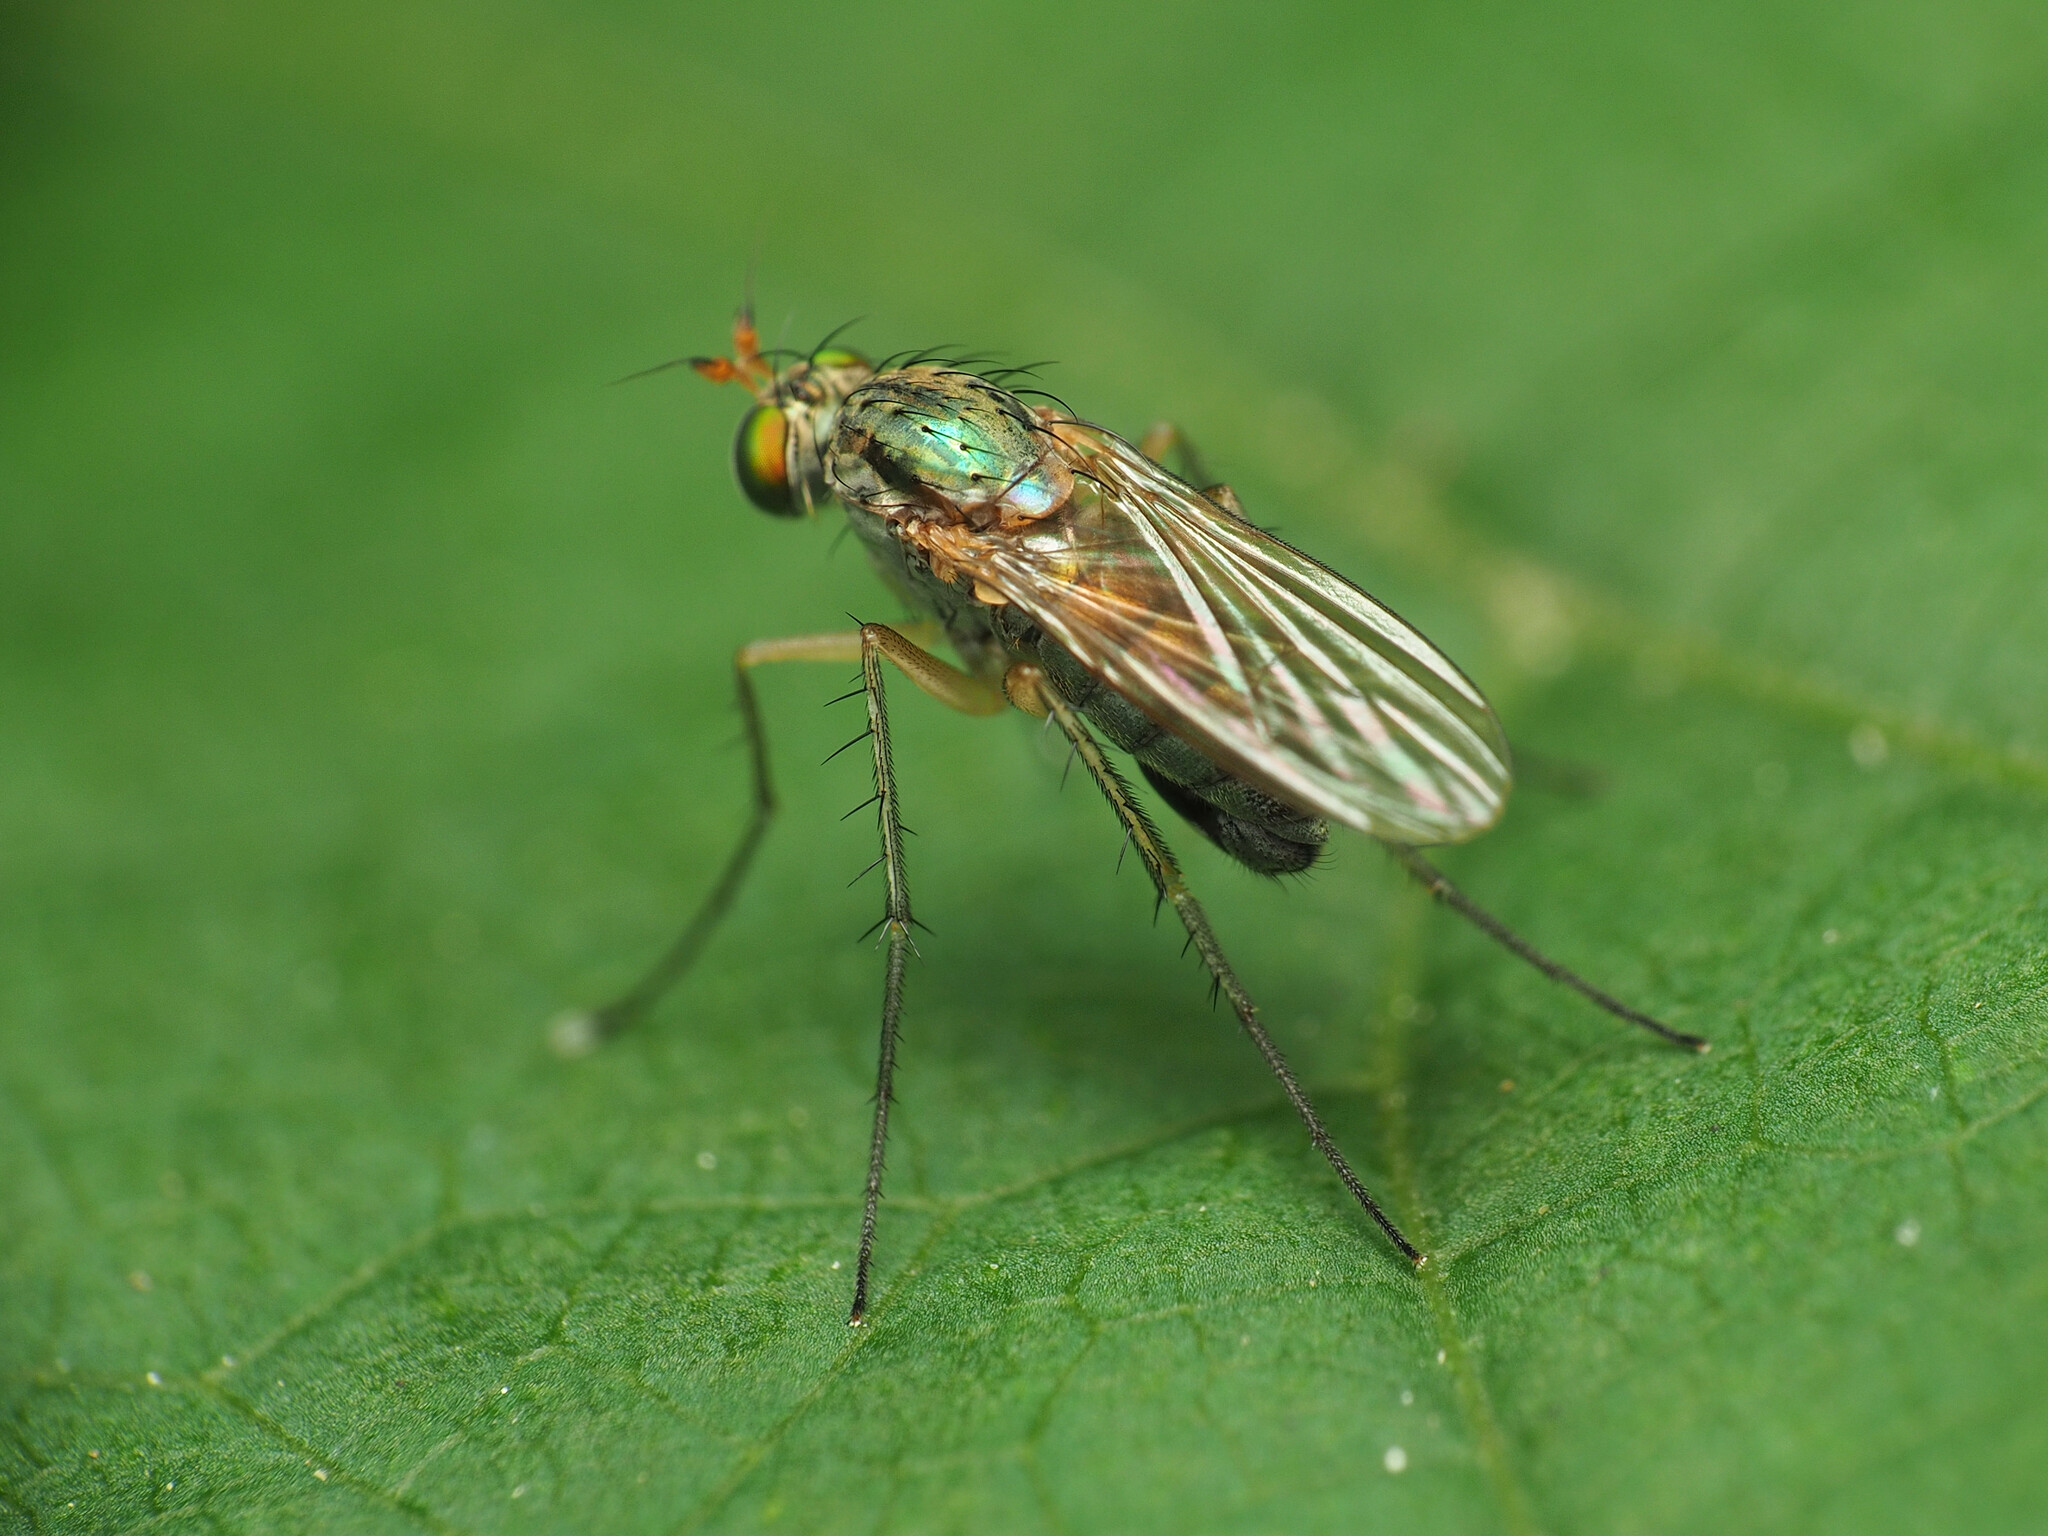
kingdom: Animalia
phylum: Arthropoda
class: Insecta
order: Diptera
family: Dolichopodidae
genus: Dolichopus
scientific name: Dolichopus funditor
